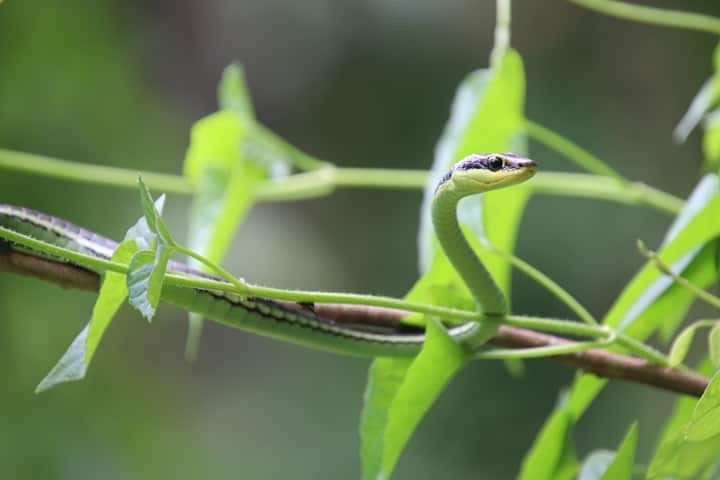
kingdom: Animalia
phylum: Chordata
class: Squamata
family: Colubridae
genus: Dendrelaphis
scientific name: Dendrelaphis marenae
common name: Maren’s bronzeback
